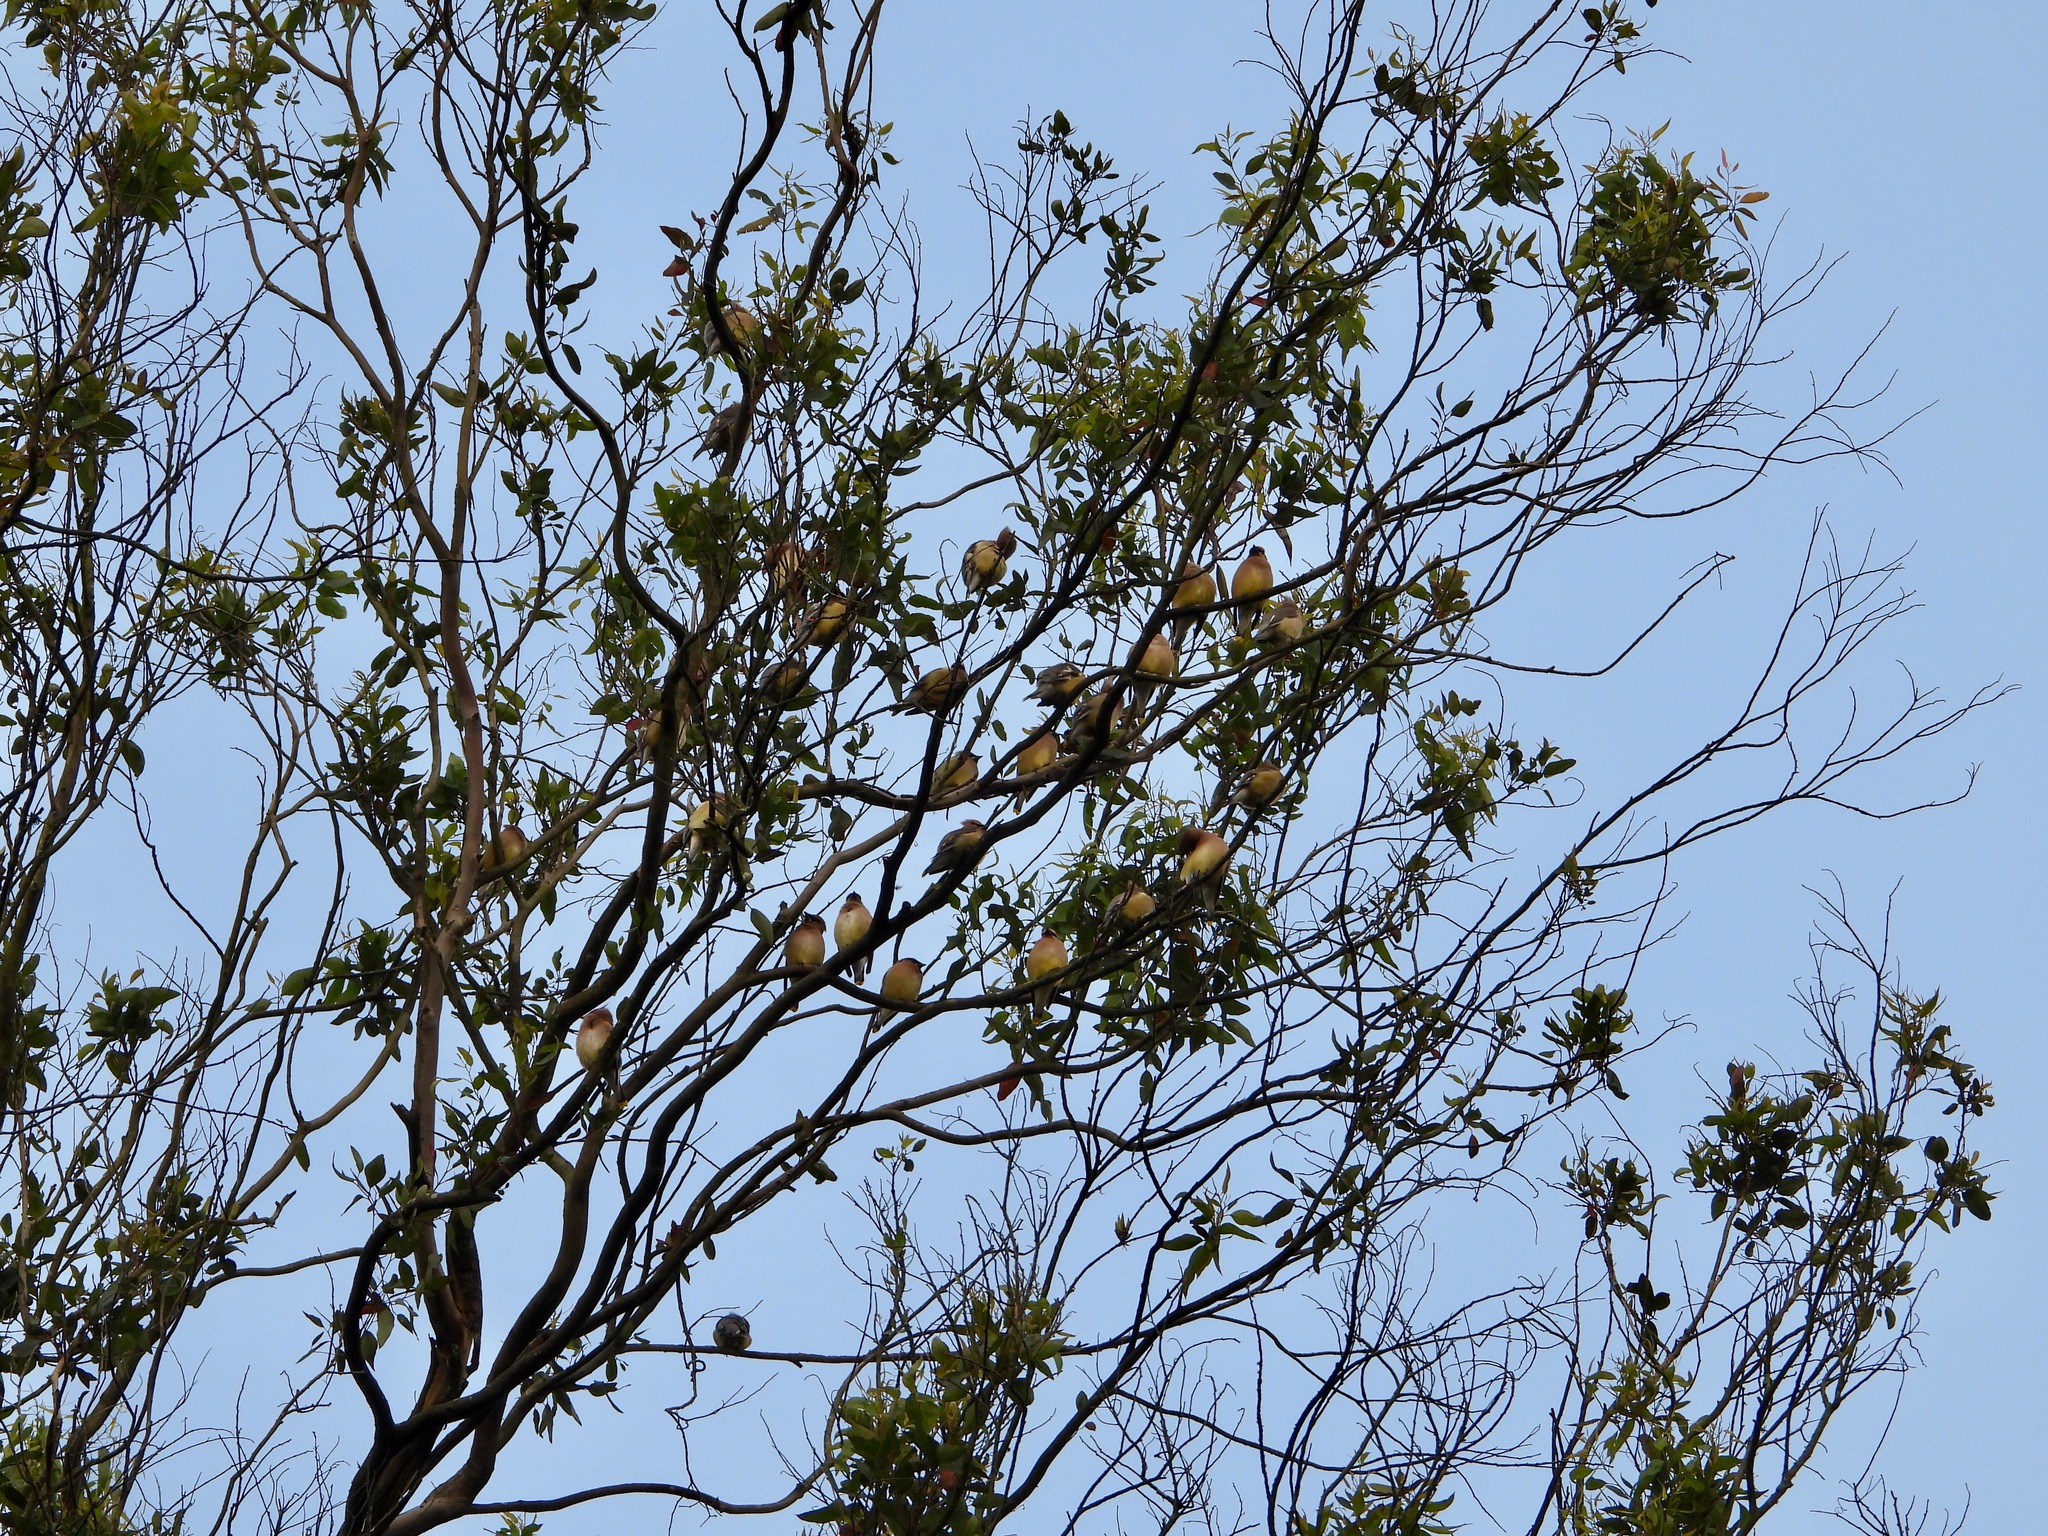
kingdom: Animalia
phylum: Chordata
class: Aves
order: Passeriformes
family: Bombycillidae
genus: Bombycilla
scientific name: Bombycilla cedrorum
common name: Cedar waxwing
